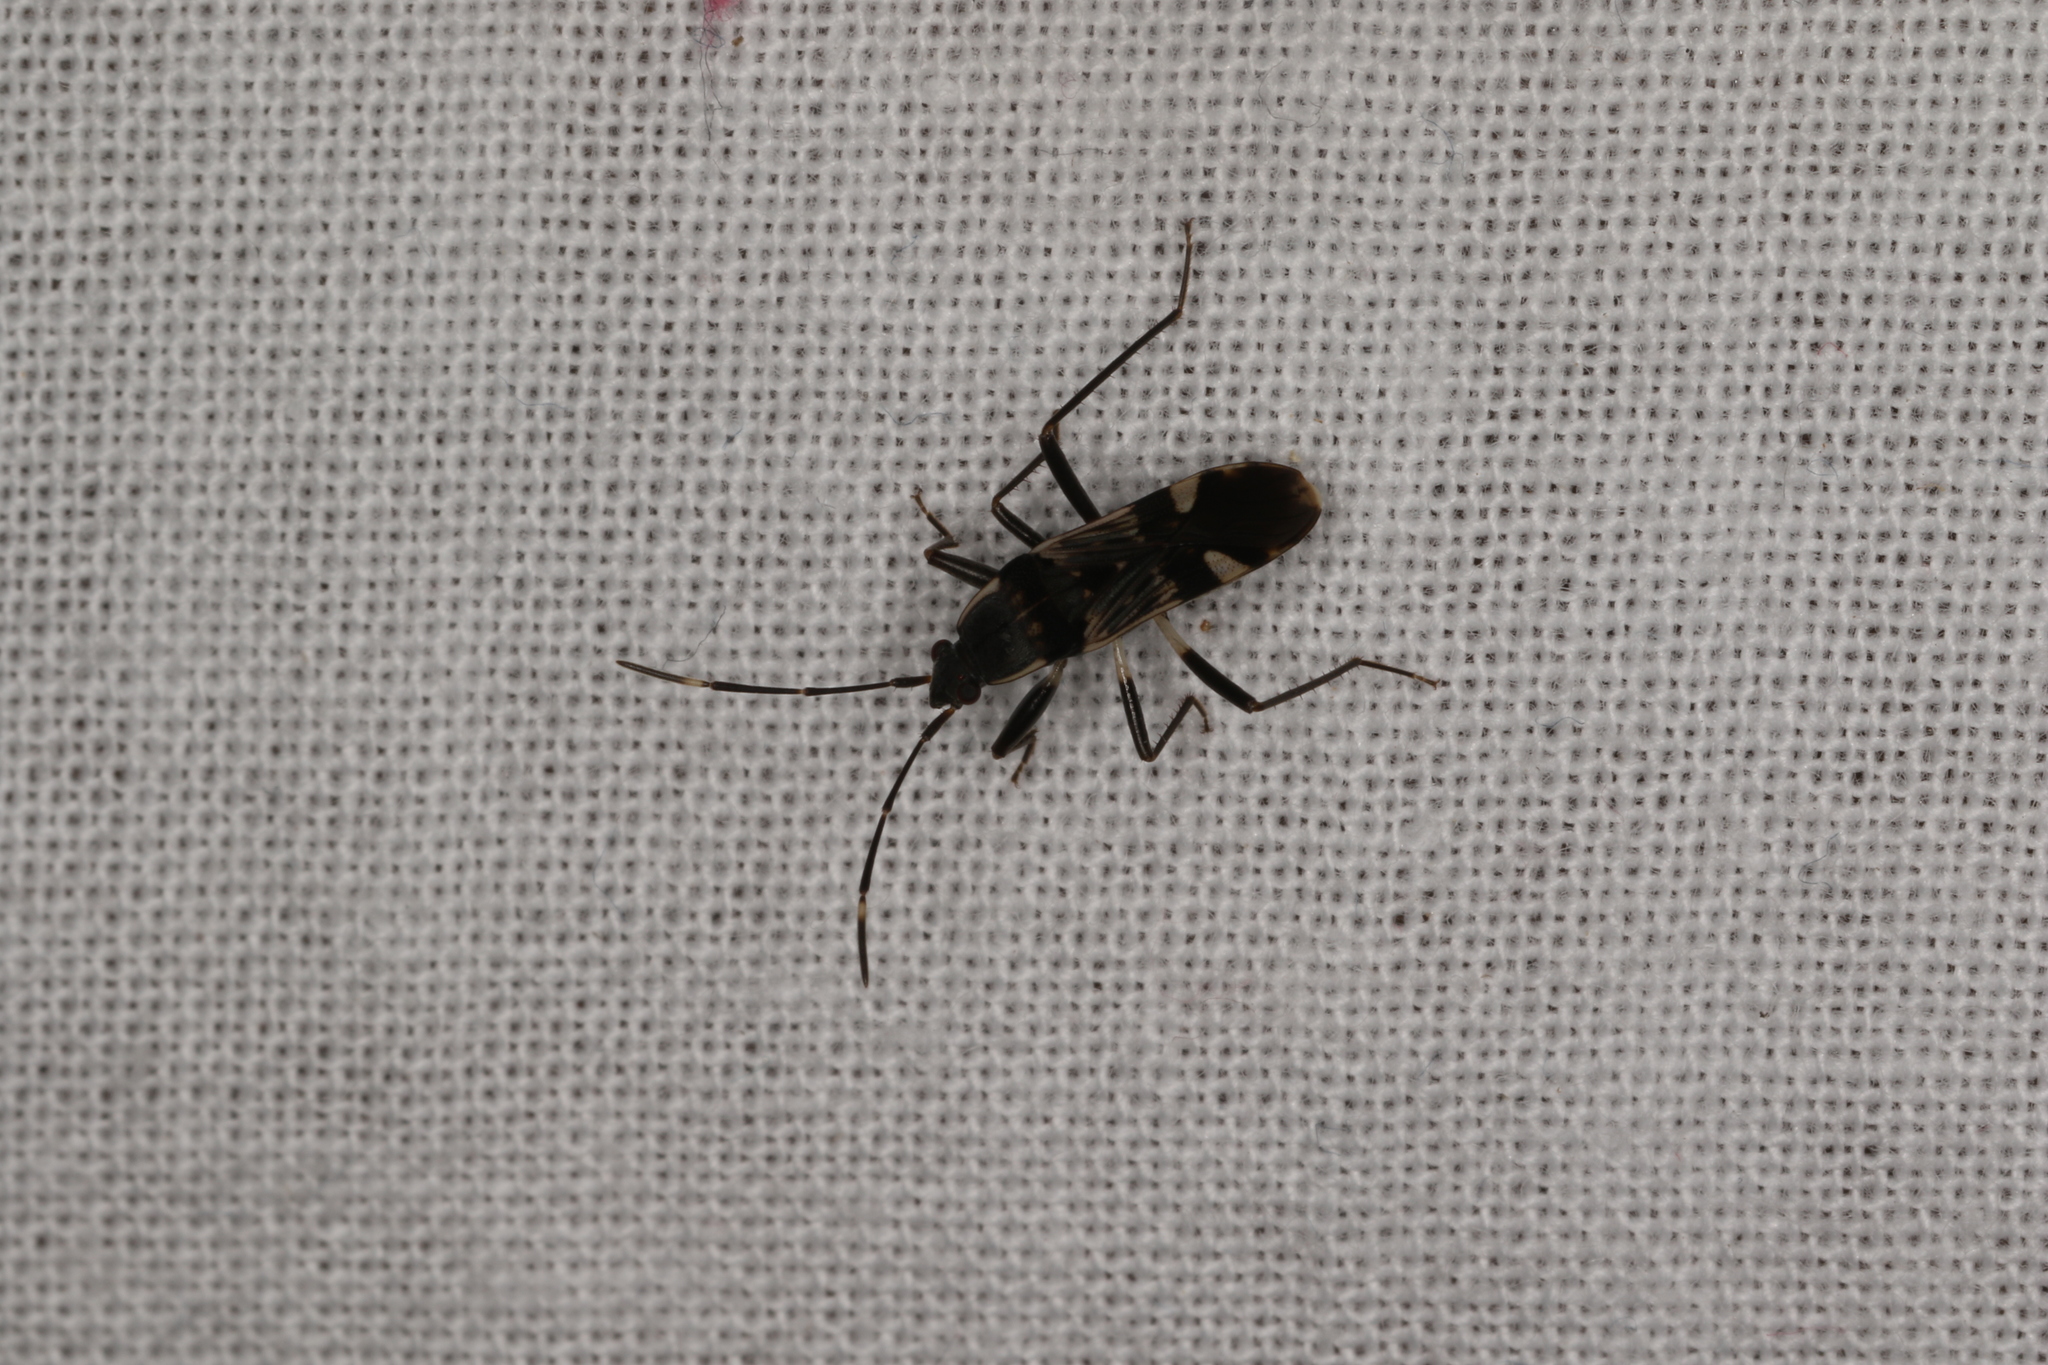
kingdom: Animalia
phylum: Arthropoda
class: Insecta
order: Hemiptera
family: Rhyparochromidae
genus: Dieuches
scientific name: Dieuches maculicollis
